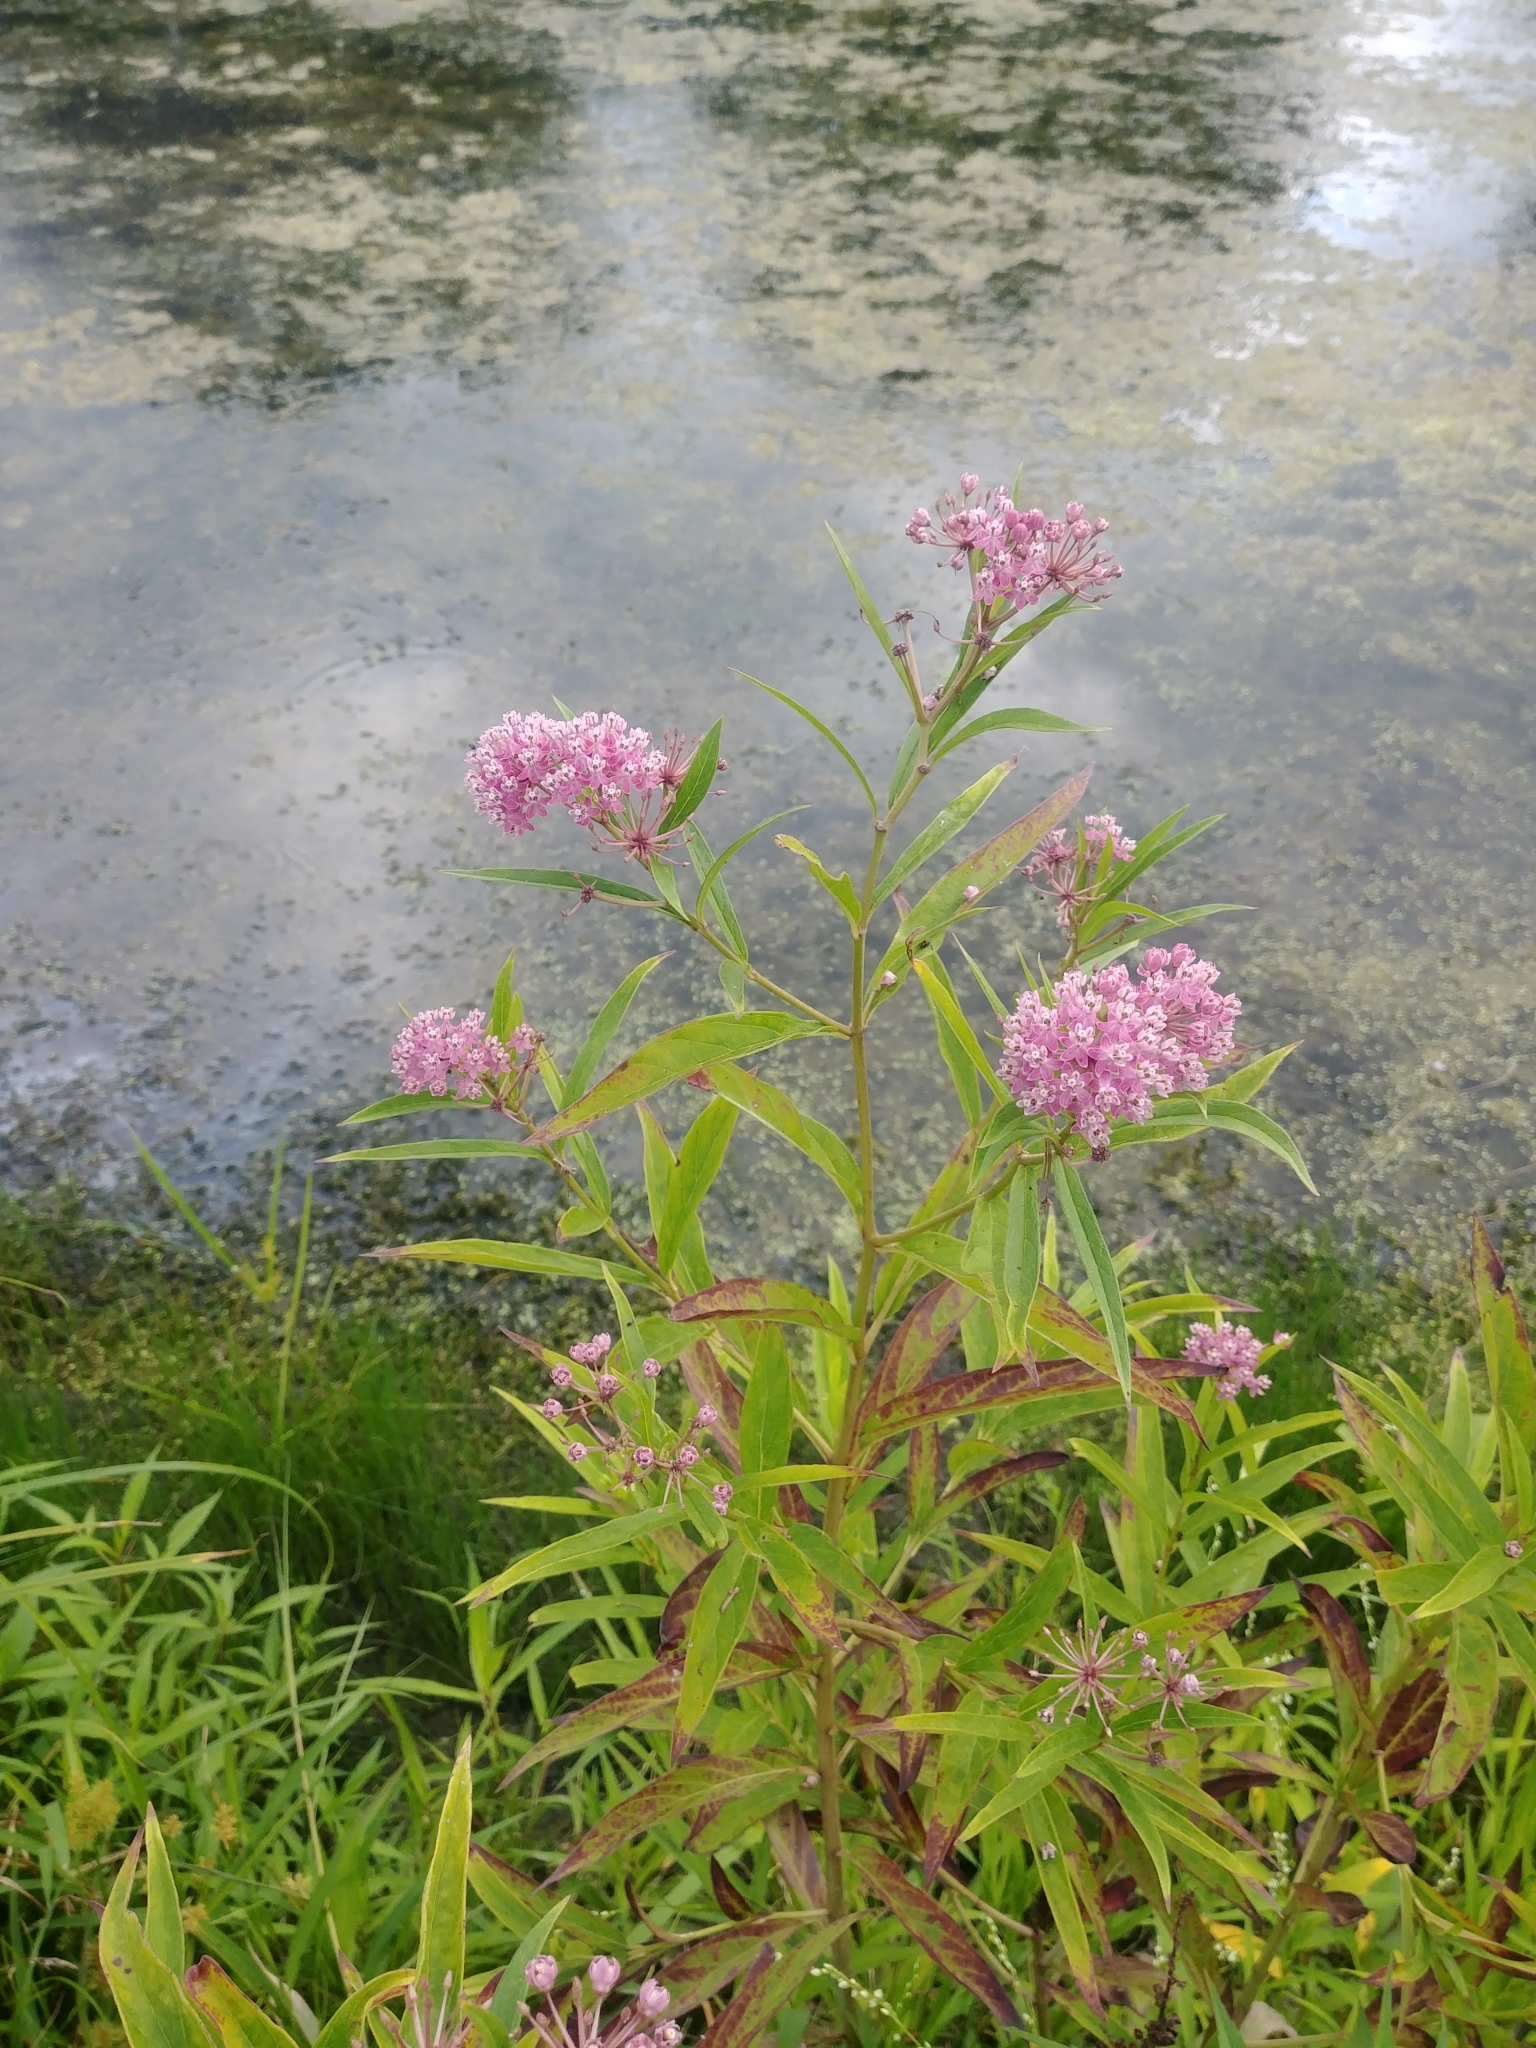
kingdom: Plantae
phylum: Tracheophyta
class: Magnoliopsida
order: Gentianales
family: Apocynaceae
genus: Asclepias
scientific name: Asclepias incarnata
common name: Swamp milkweed
